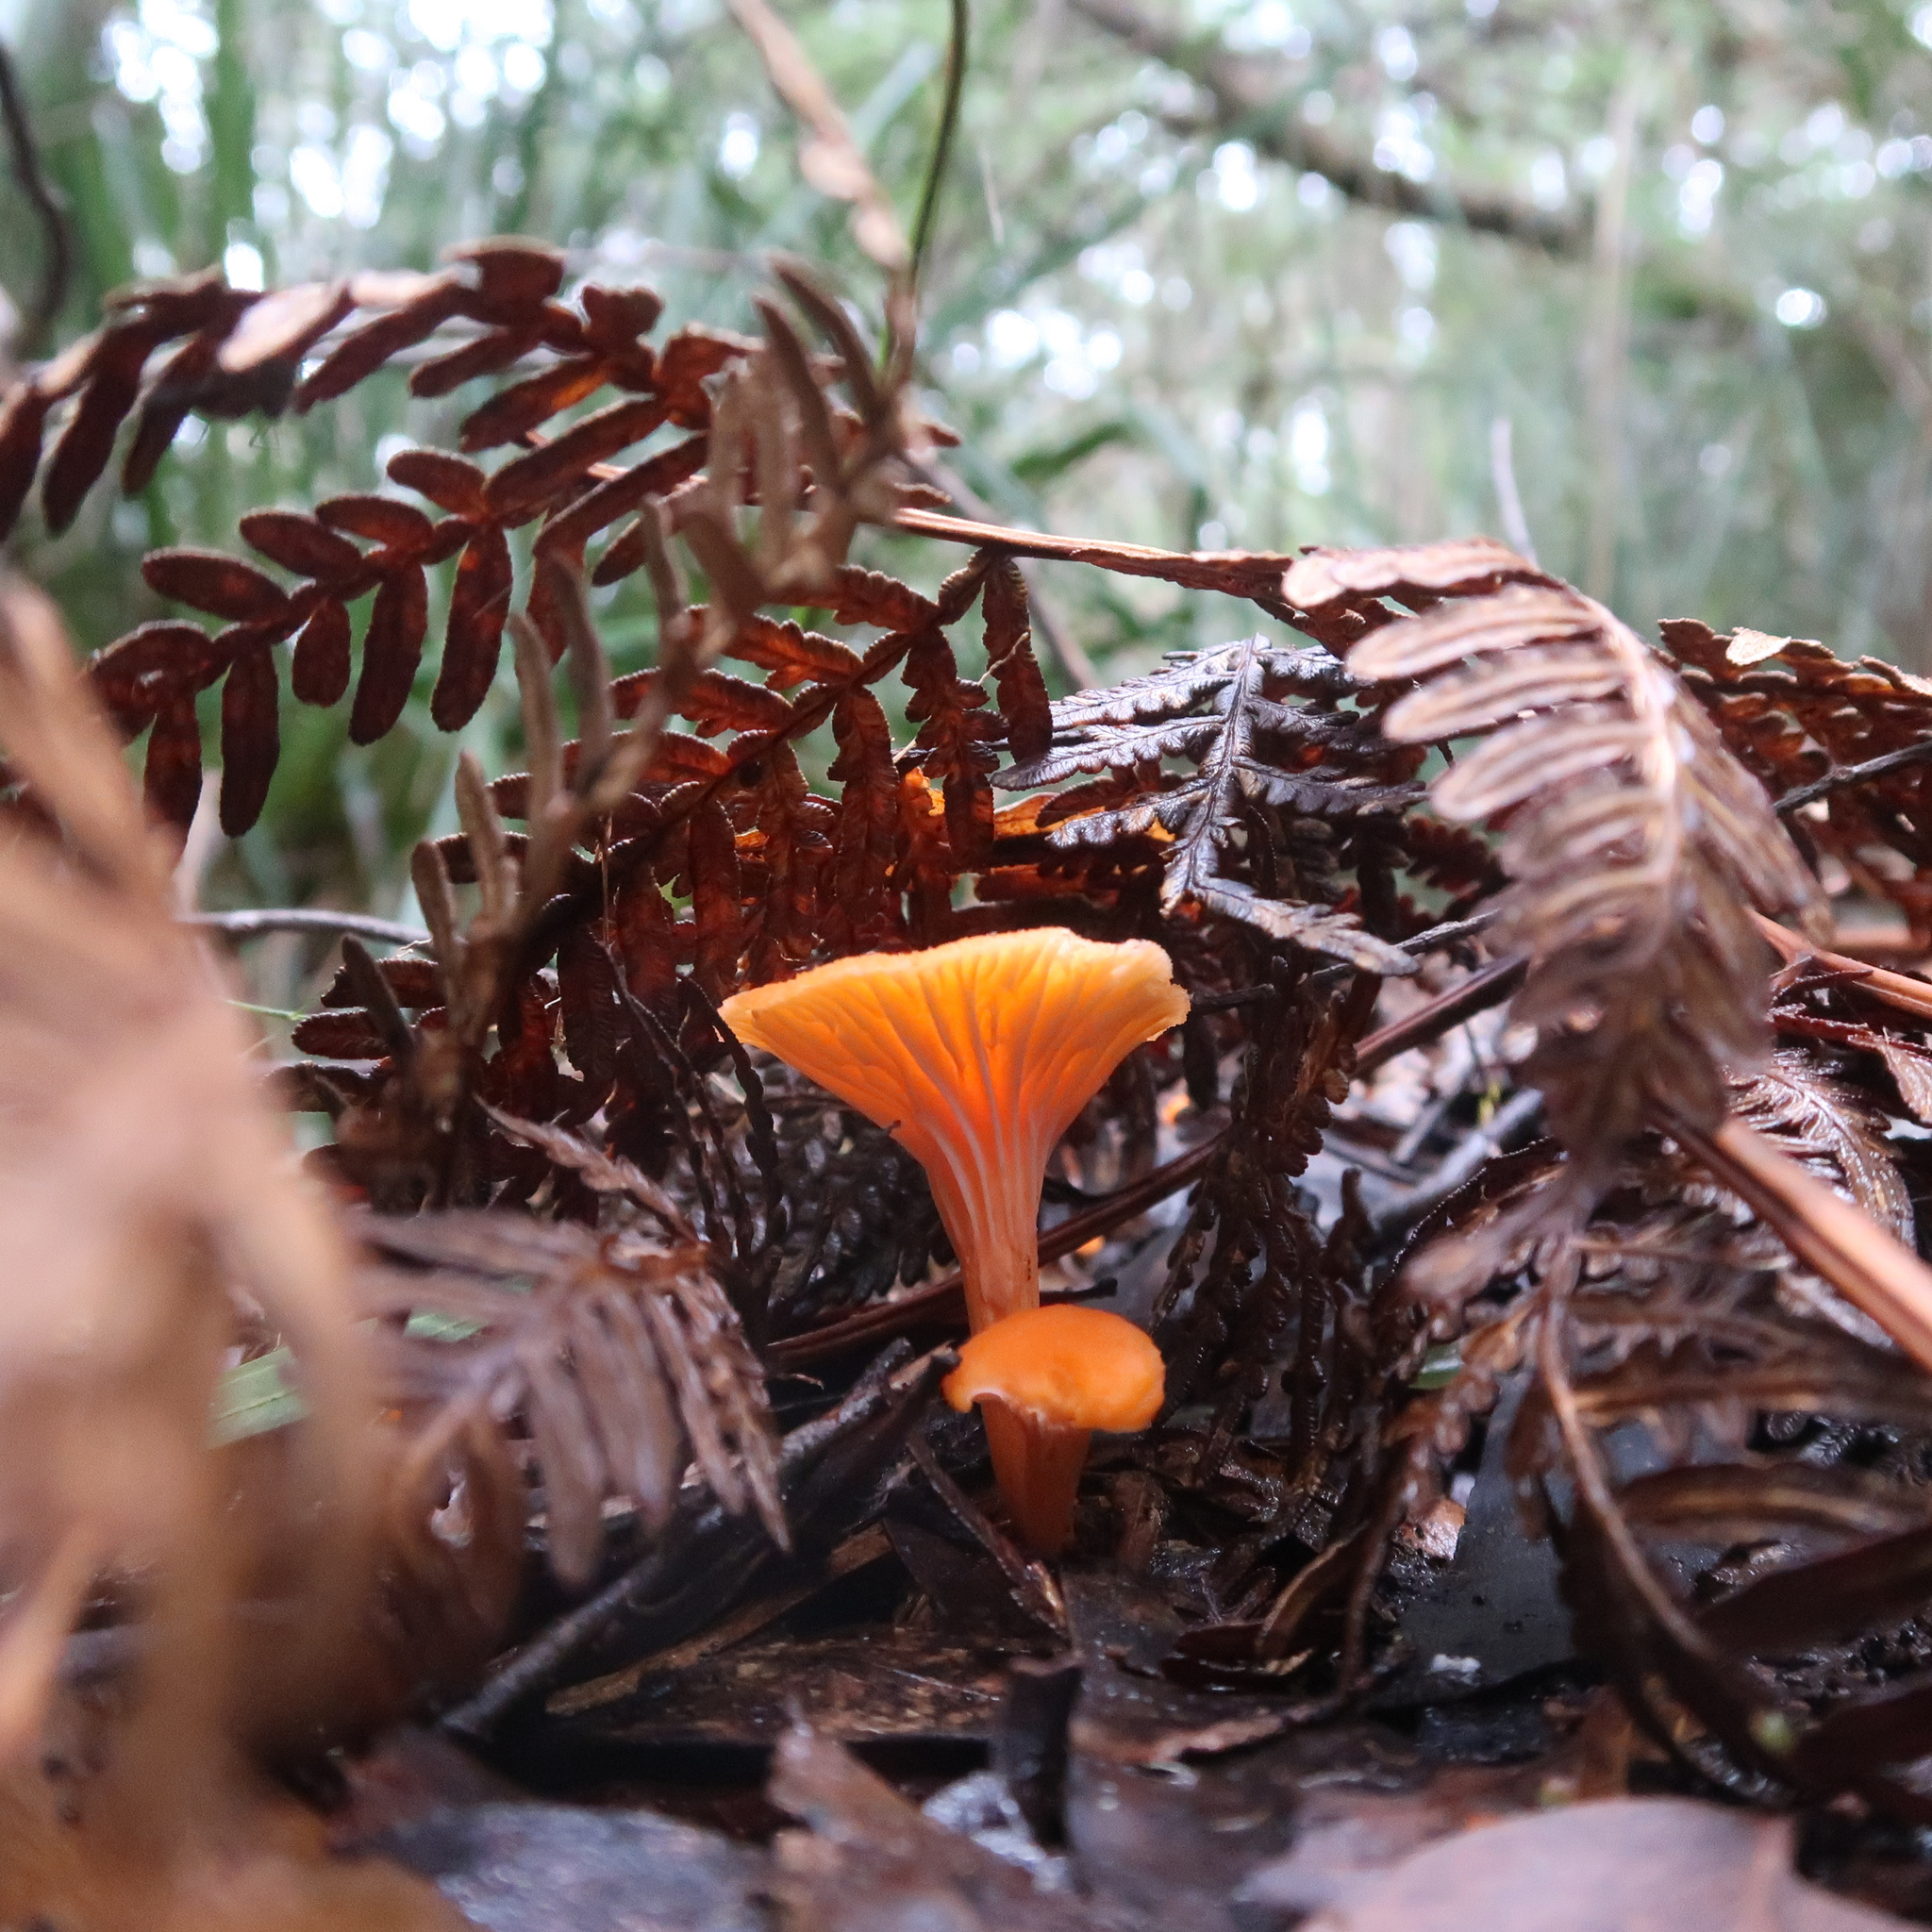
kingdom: Fungi
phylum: Basidiomycota
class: Agaricomycetes
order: Cantharellales
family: Hydnaceae
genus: Cantharellus
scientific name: Cantharellus
